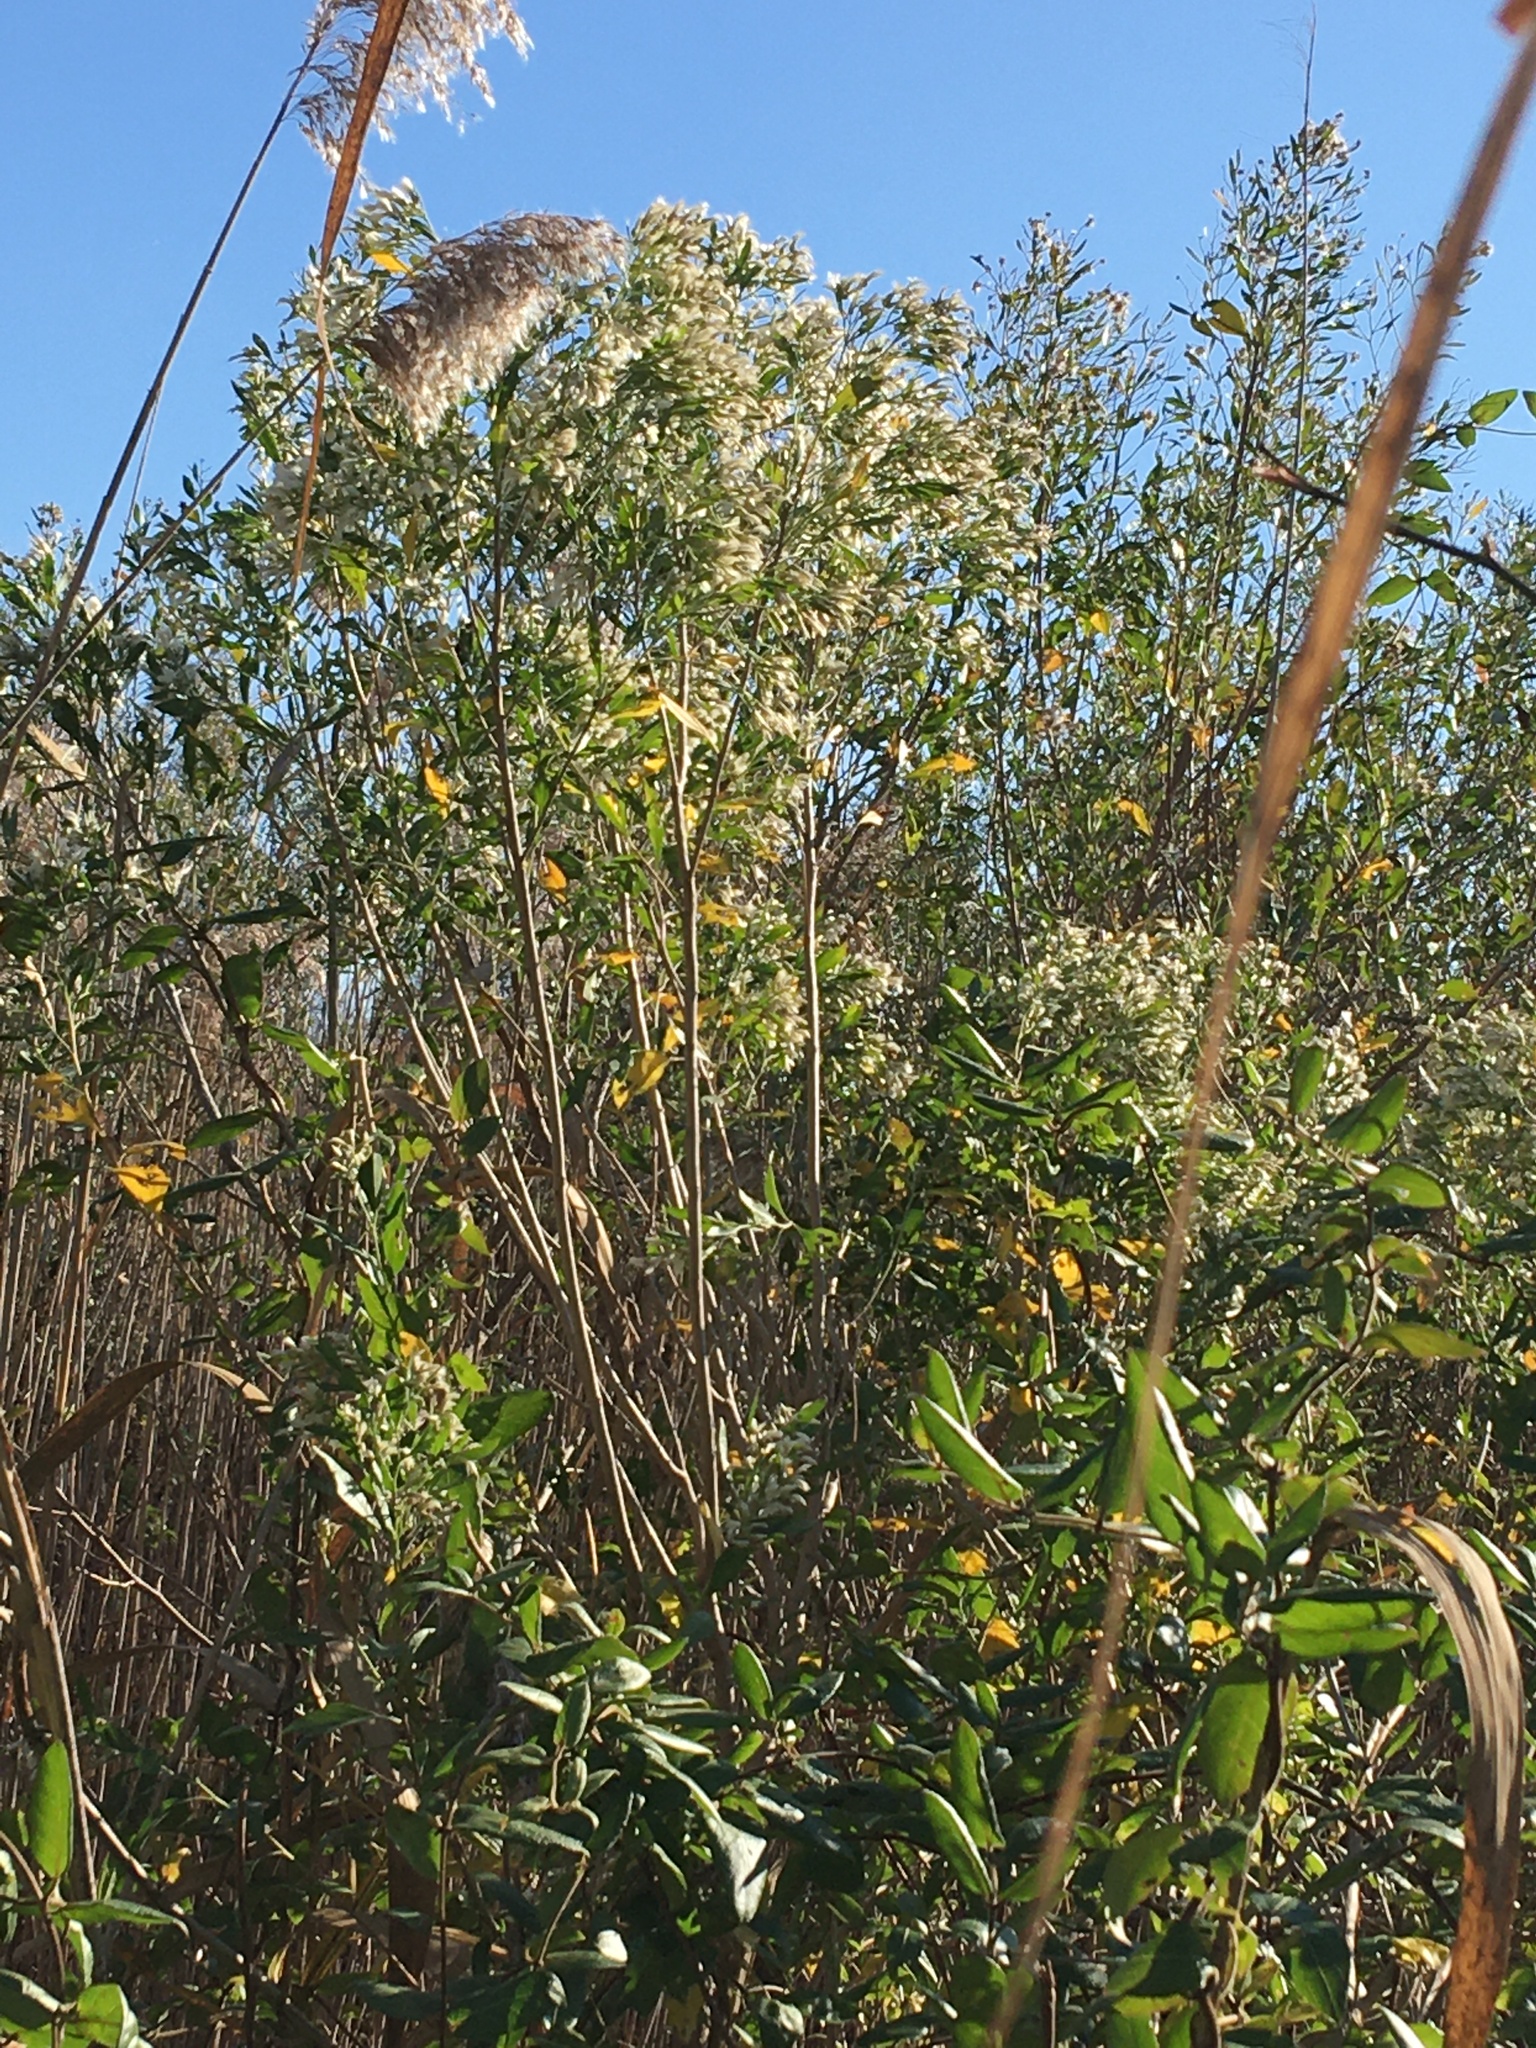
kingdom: Plantae
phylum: Tracheophyta
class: Magnoliopsida
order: Asterales
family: Asteraceae
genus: Baccharis
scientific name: Baccharis halimifolia
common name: Eastern baccharis
